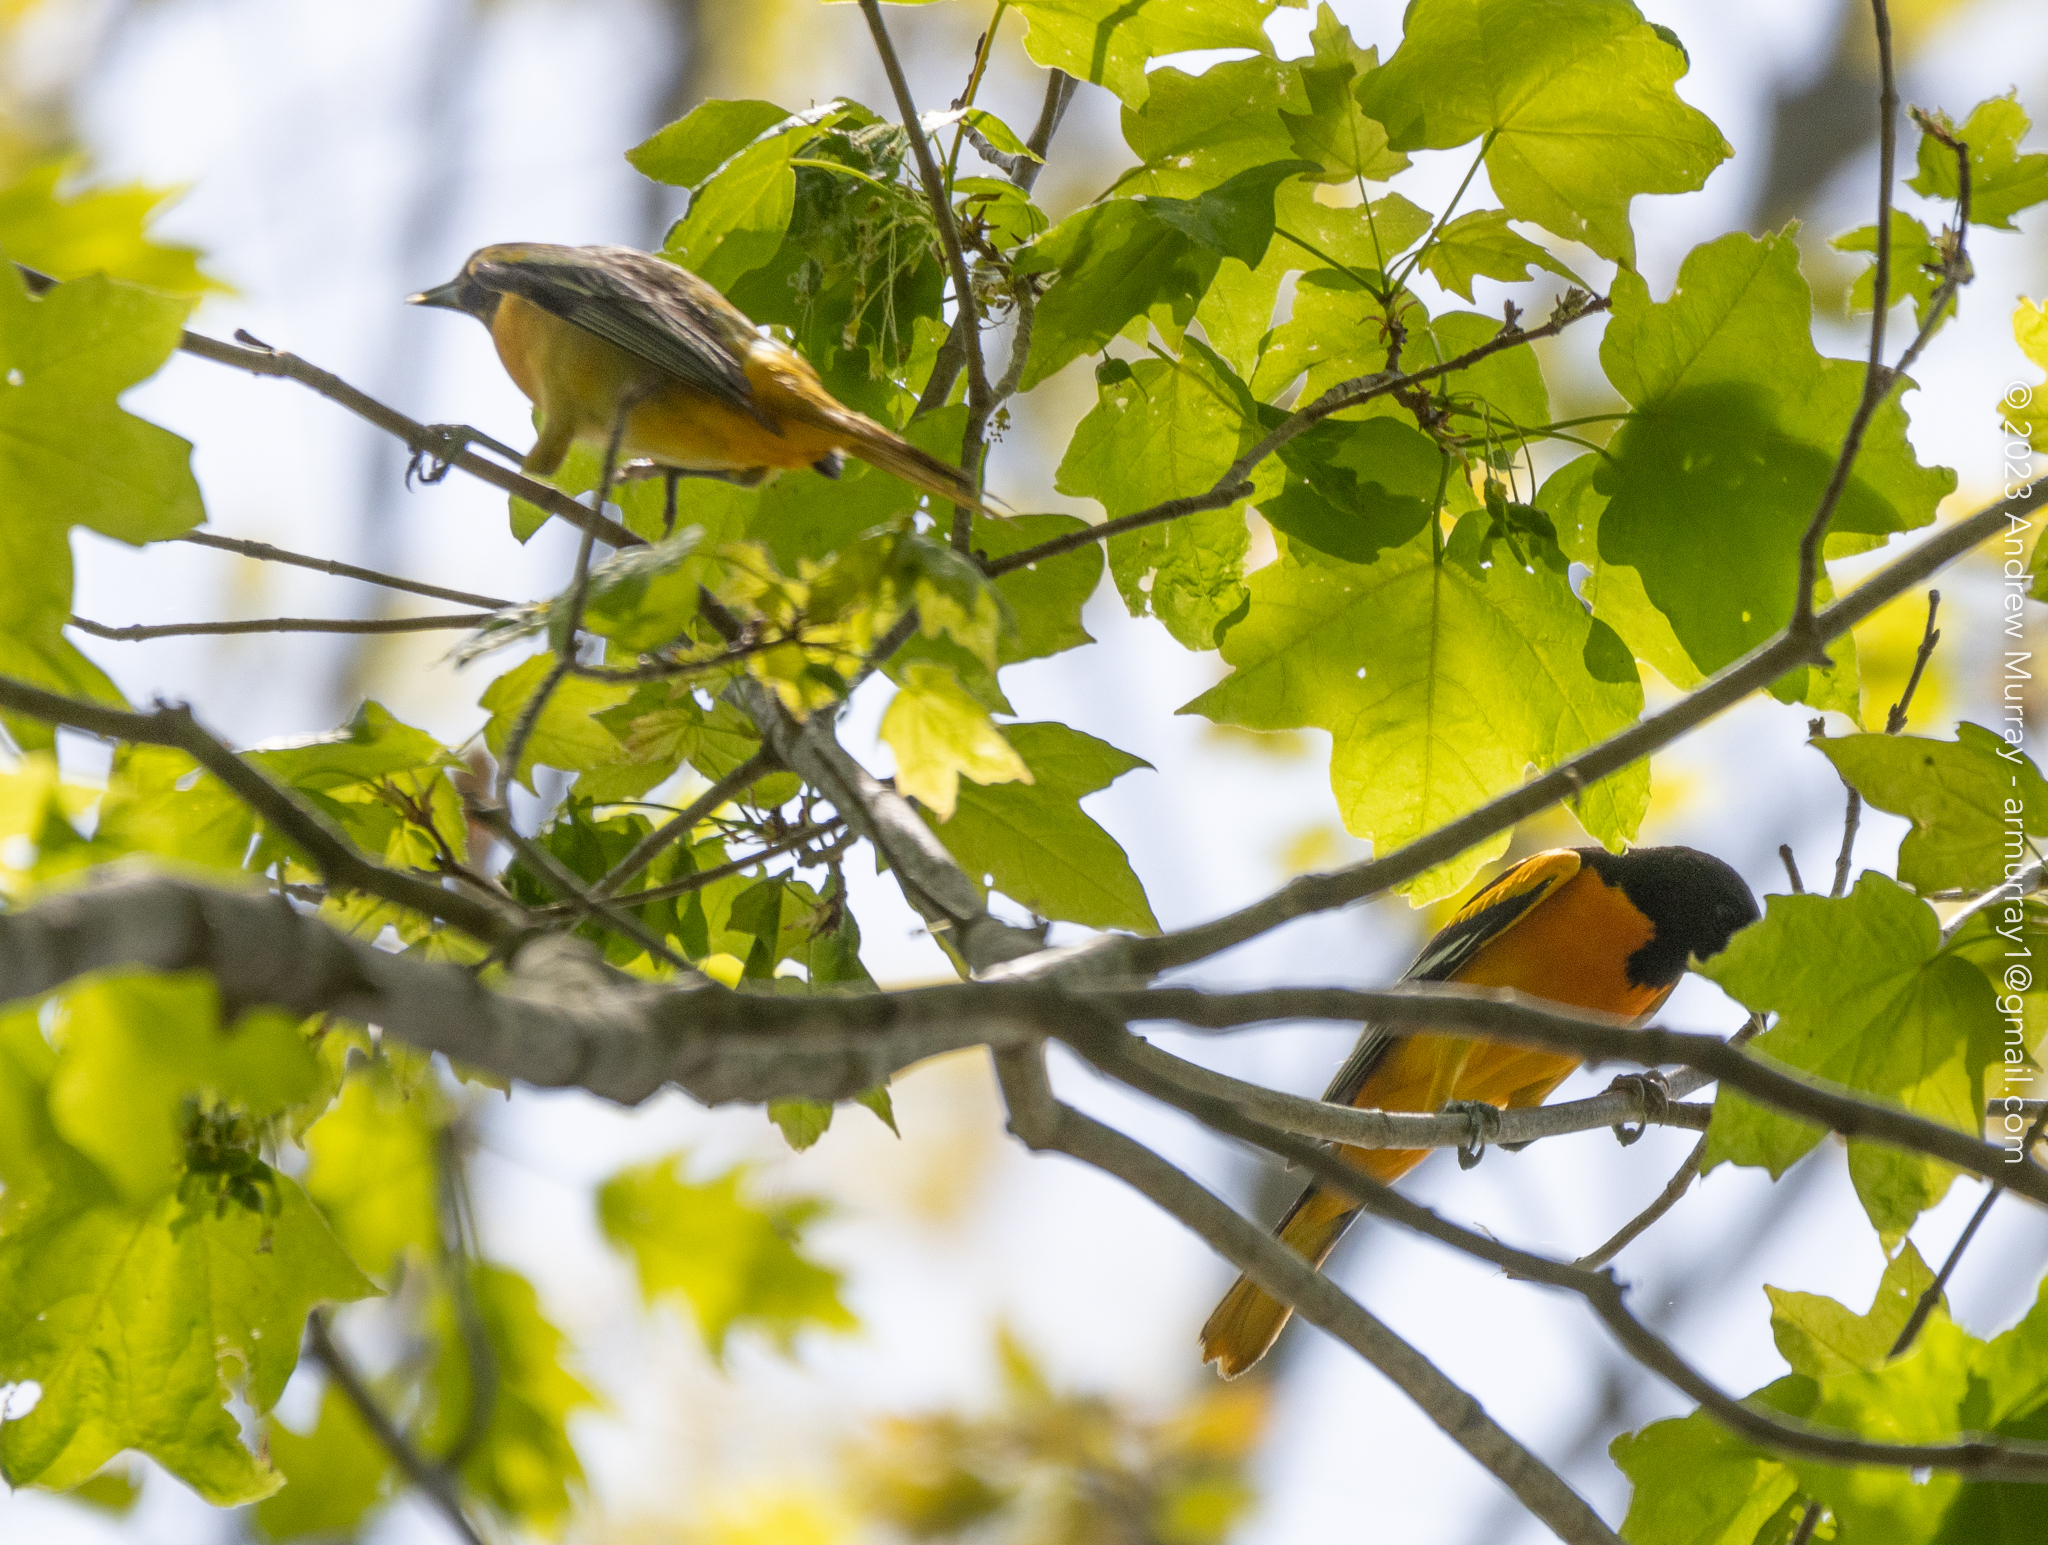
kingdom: Animalia
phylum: Chordata
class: Aves
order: Passeriformes
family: Icteridae
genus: Icterus
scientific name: Icterus galbula
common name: Baltimore oriole
